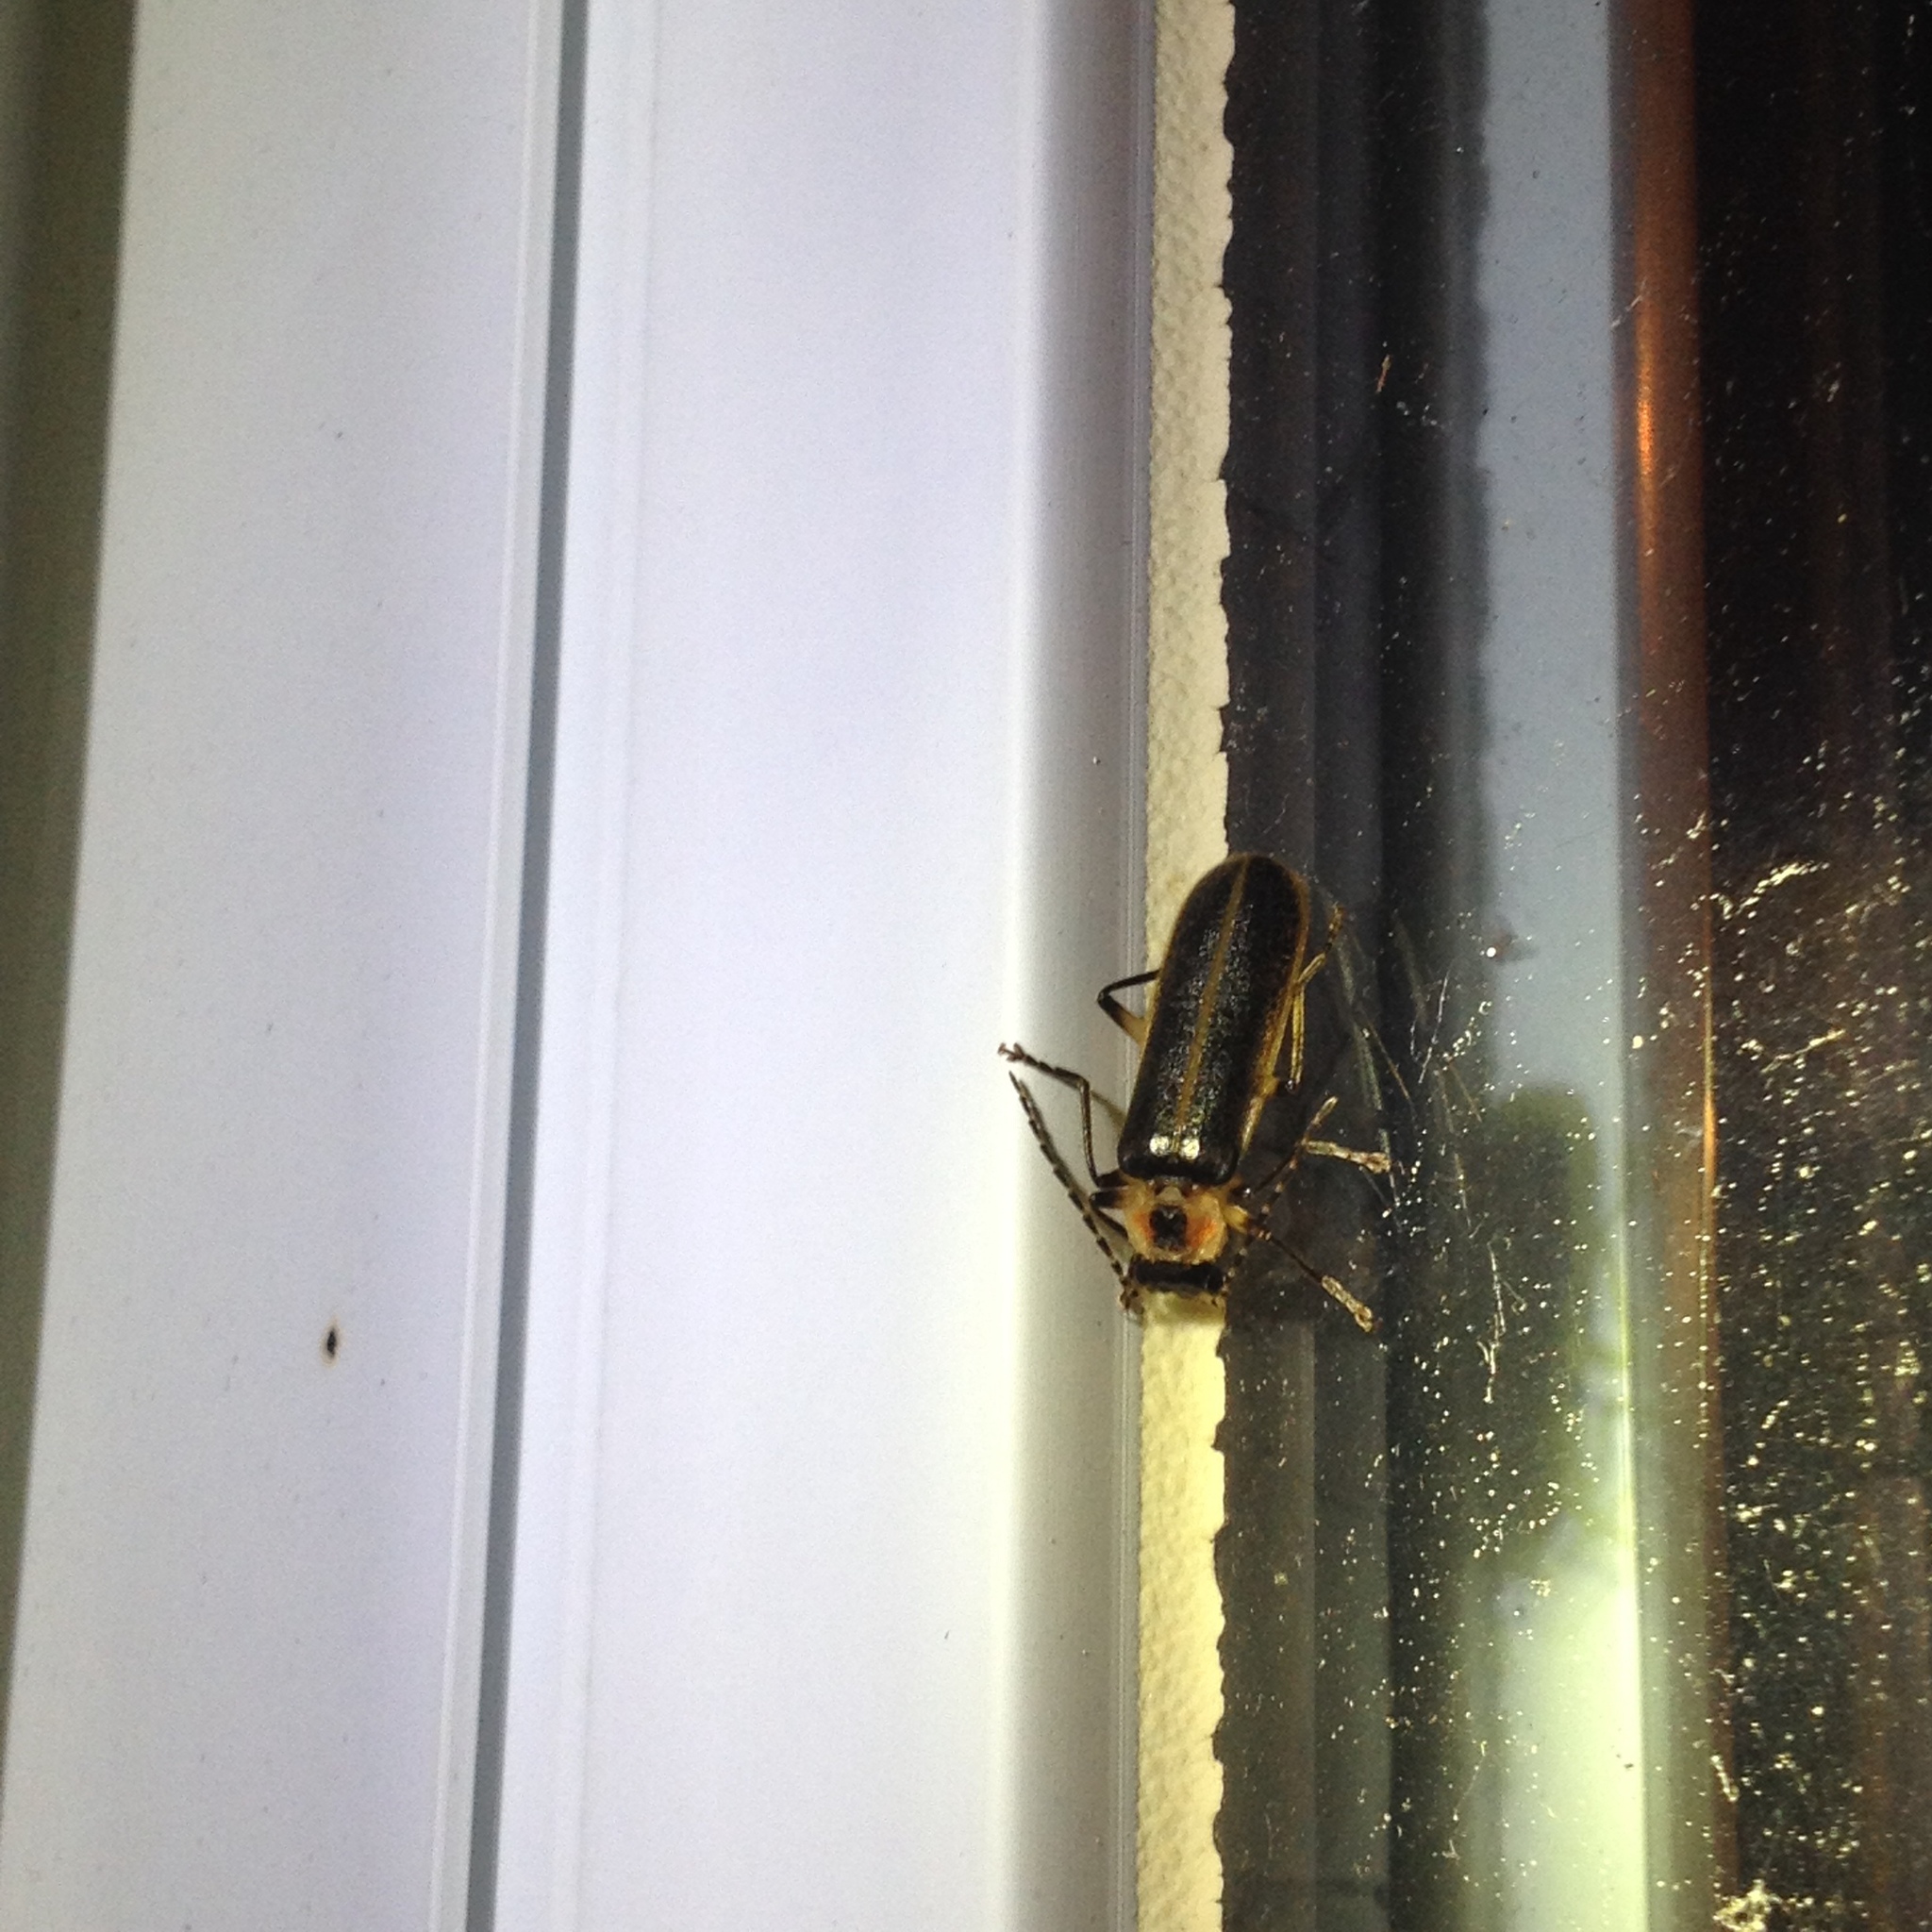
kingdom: Animalia
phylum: Arthropoda
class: Insecta
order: Coleoptera
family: Cantharidae
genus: Podabrus
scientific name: Podabrus basilaris
